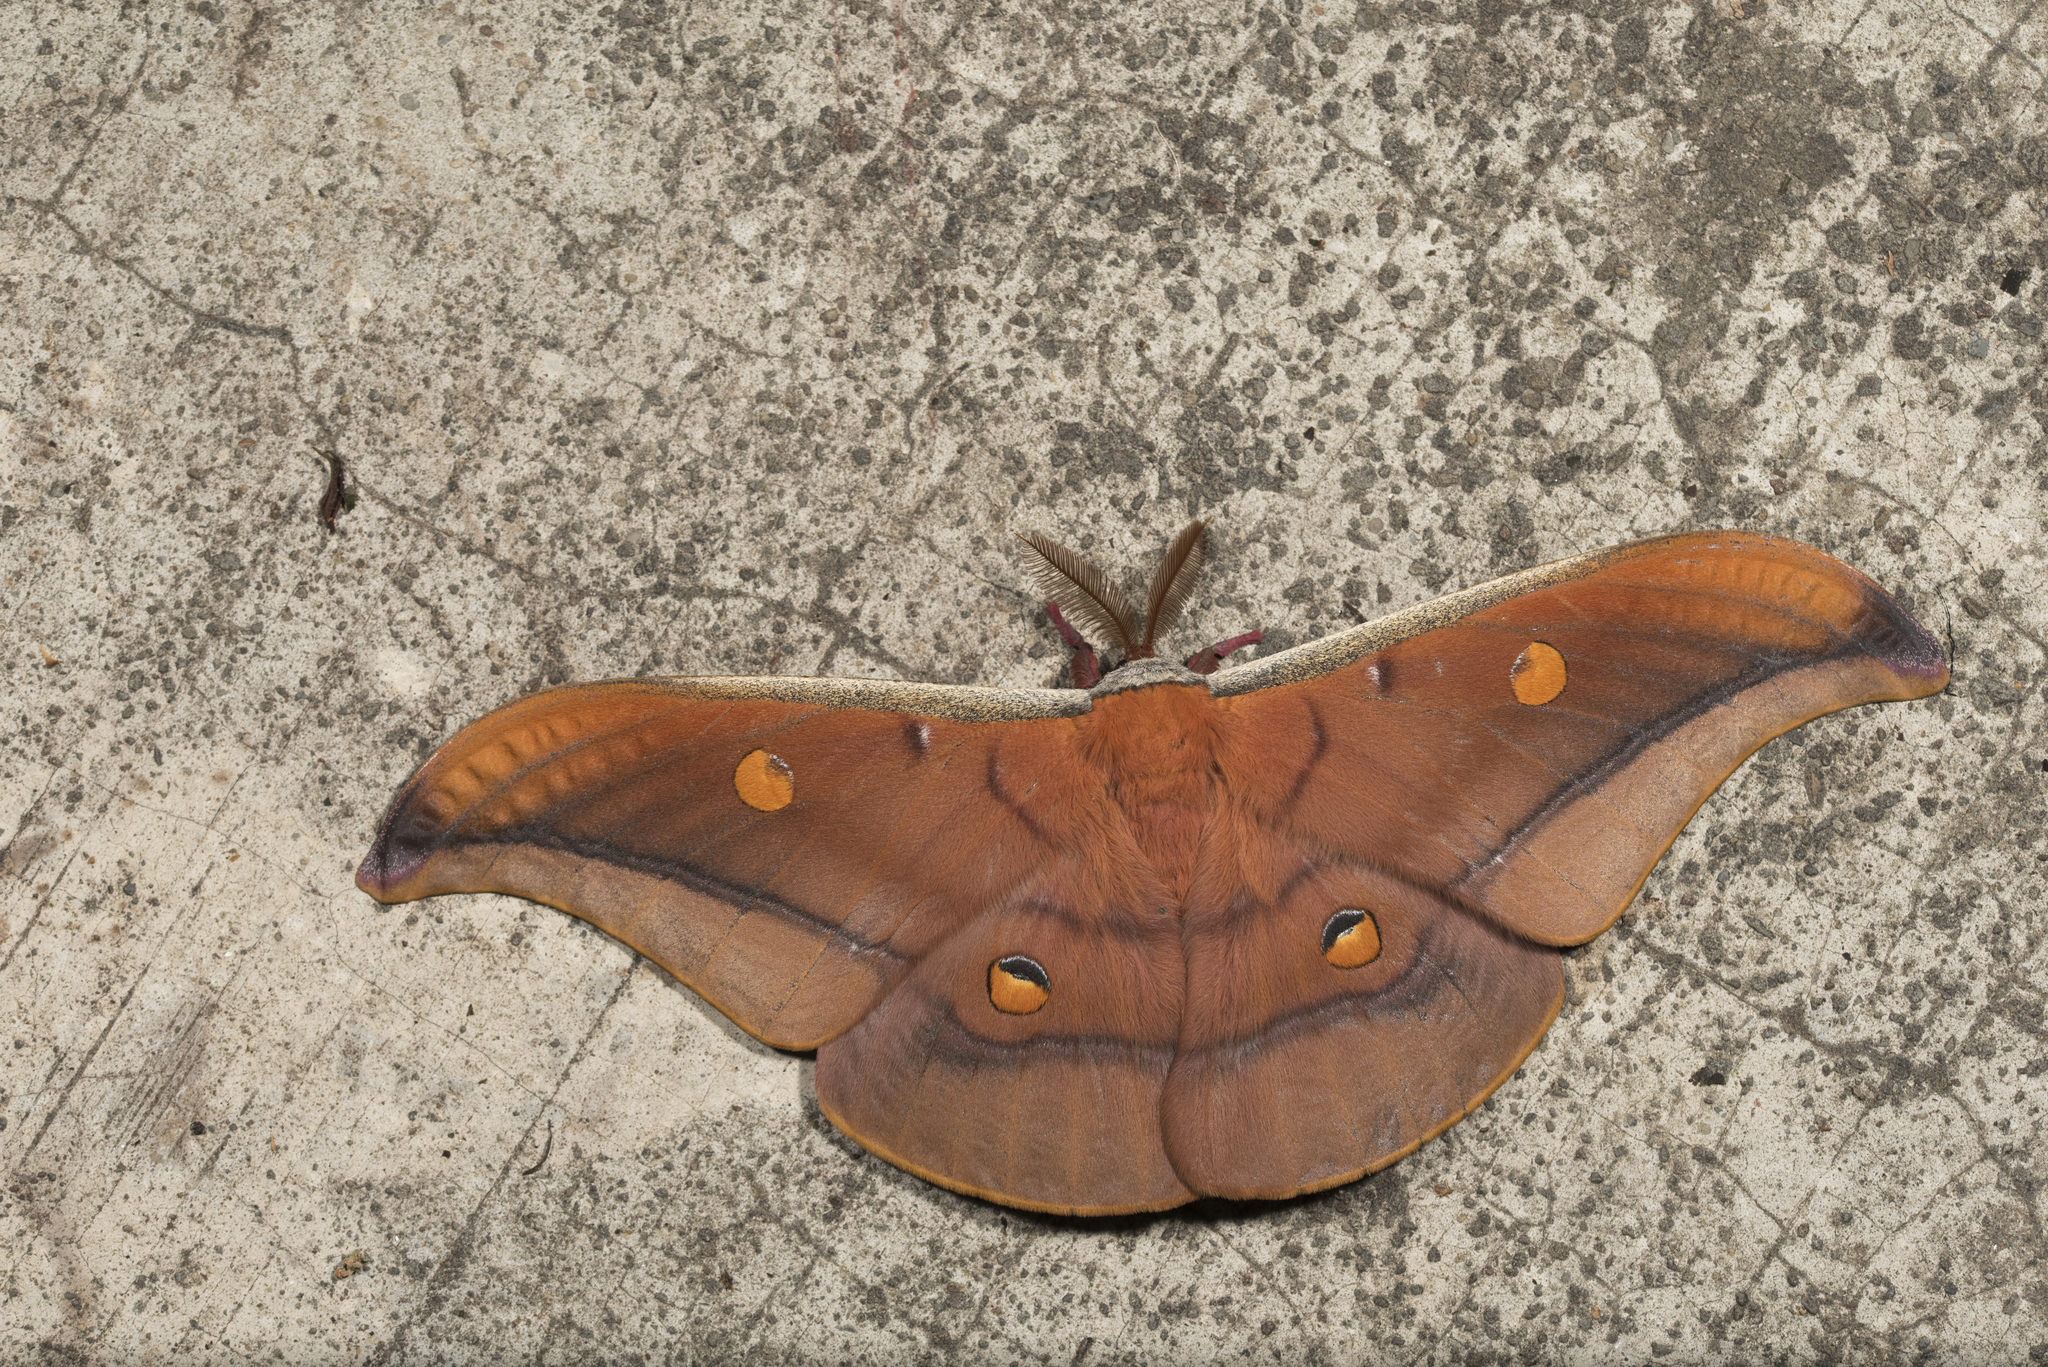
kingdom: Animalia
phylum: Arthropoda
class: Insecta
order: Lepidoptera
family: Saturniidae
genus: Antheraea
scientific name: Antheraea formosana
